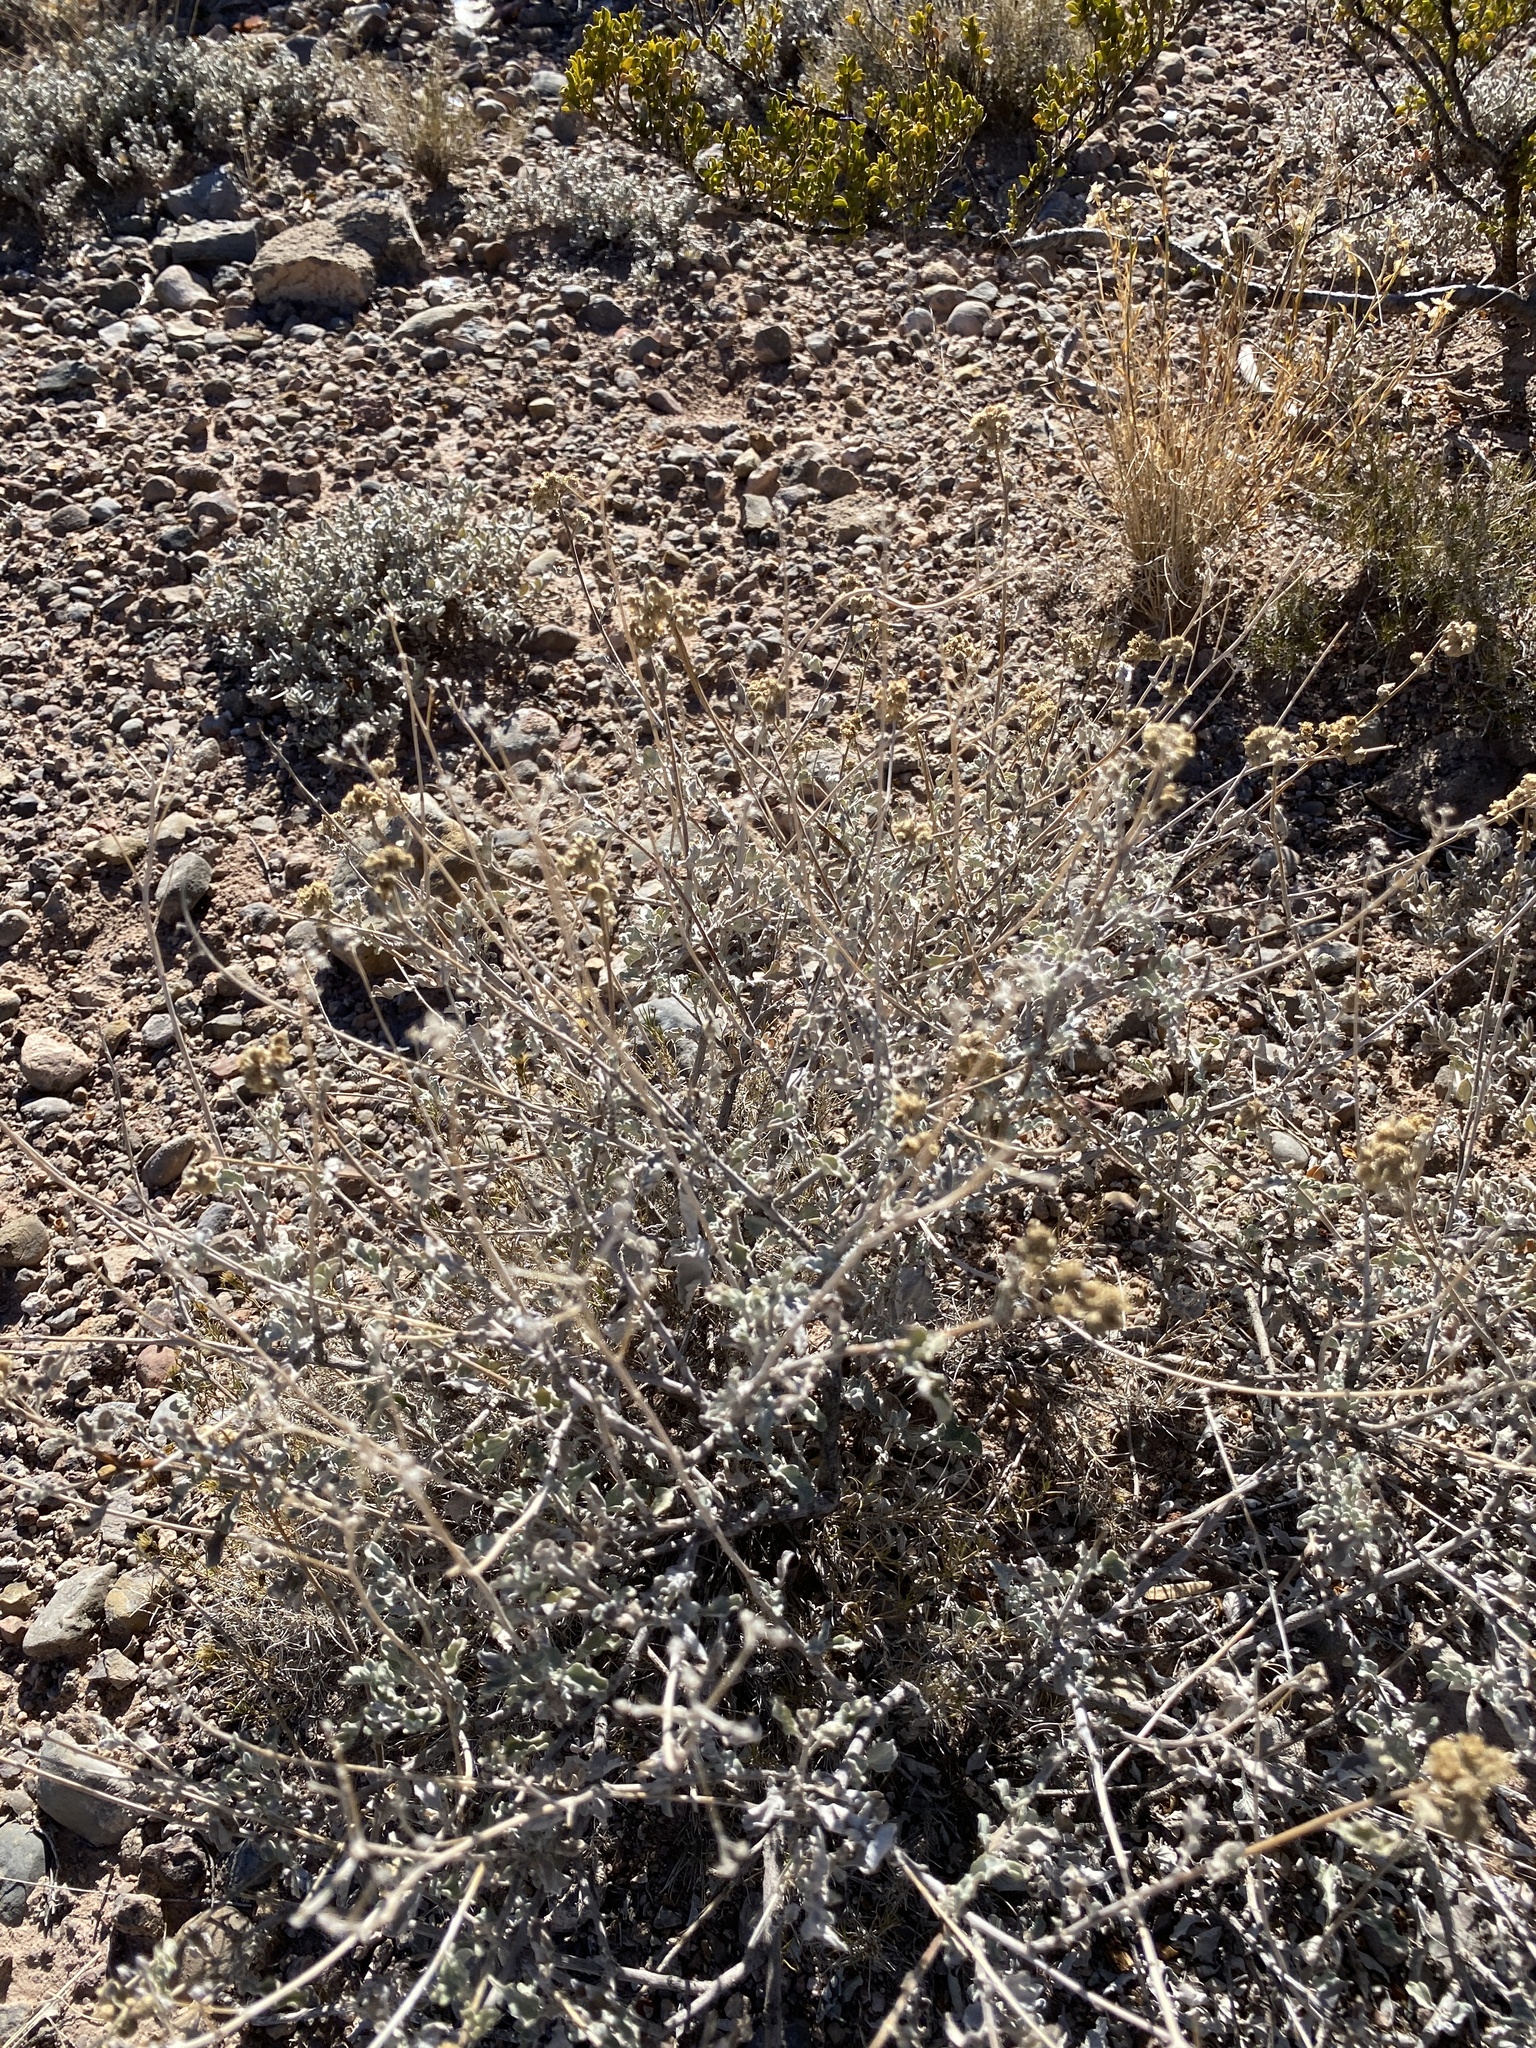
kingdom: Plantae
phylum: Tracheophyta
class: Magnoliopsida
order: Asterales
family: Asteraceae
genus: Parthenium
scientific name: Parthenium incanum
